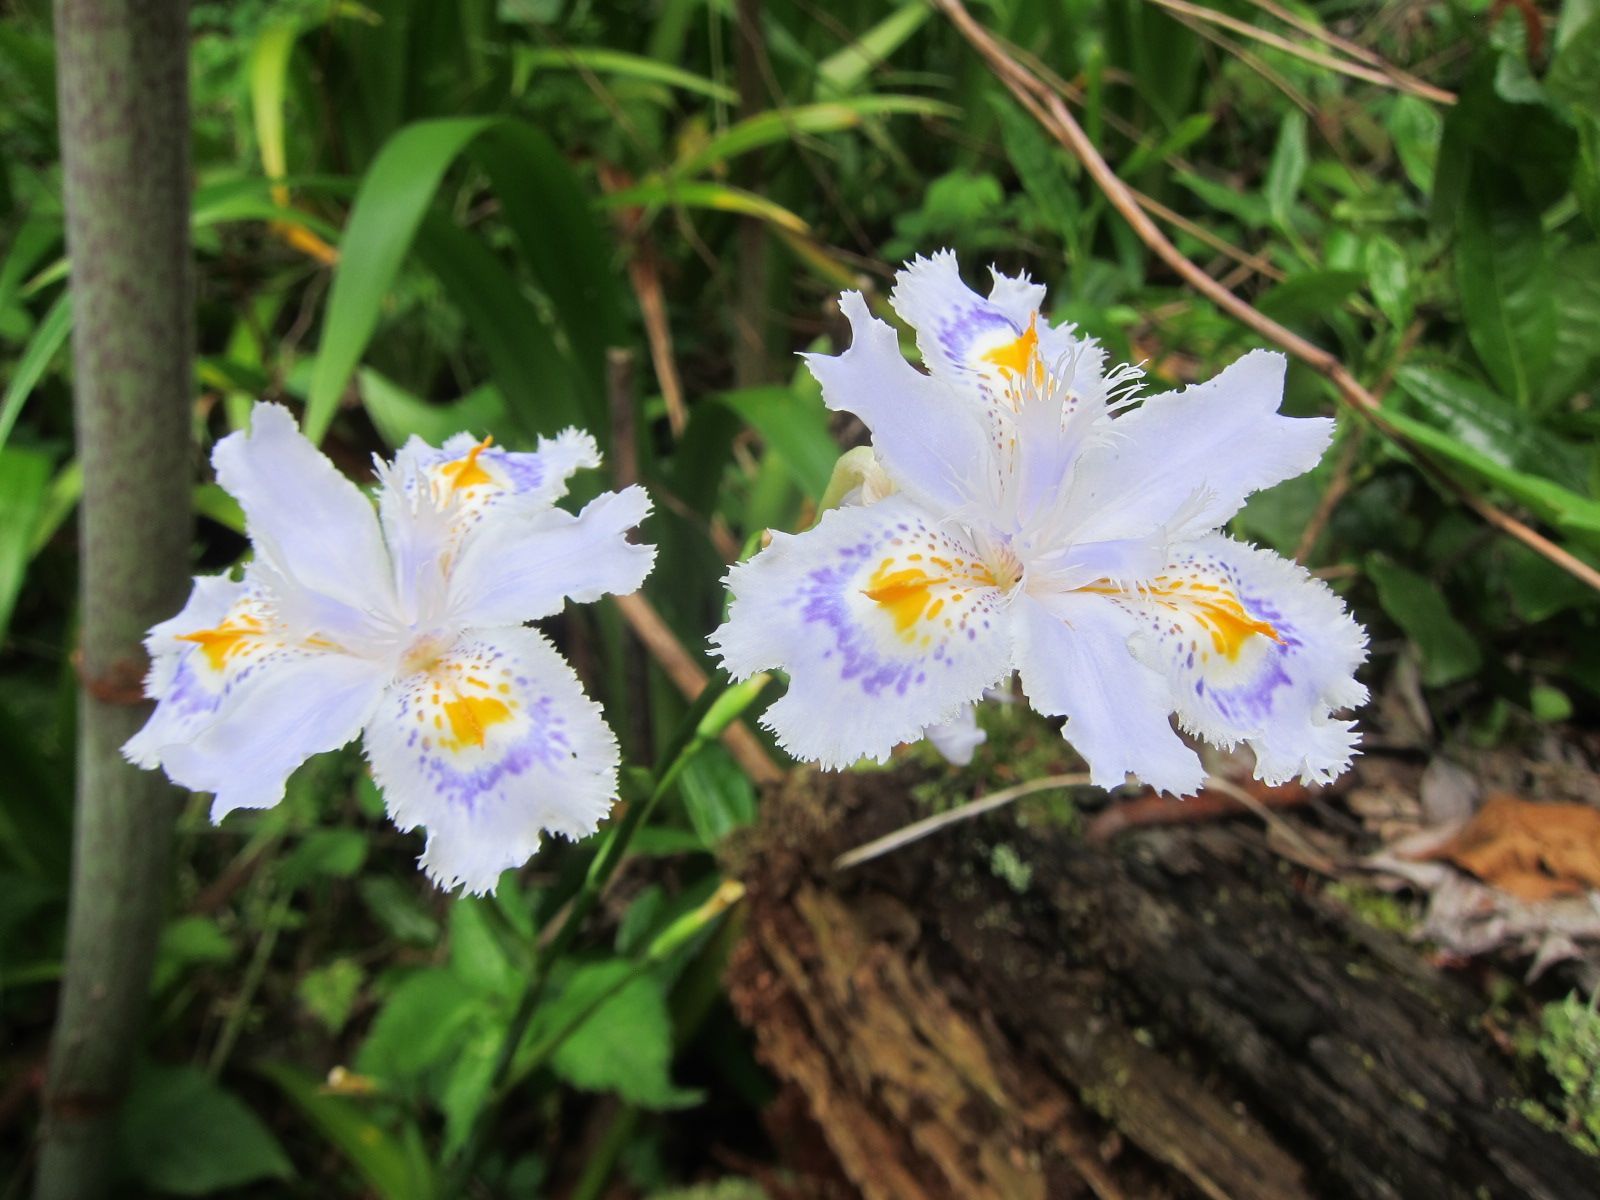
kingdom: Plantae
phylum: Tracheophyta
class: Liliopsida
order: Asparagales
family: Iridaceae
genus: Iris
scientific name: Iris japonica
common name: Butterfly-flower
